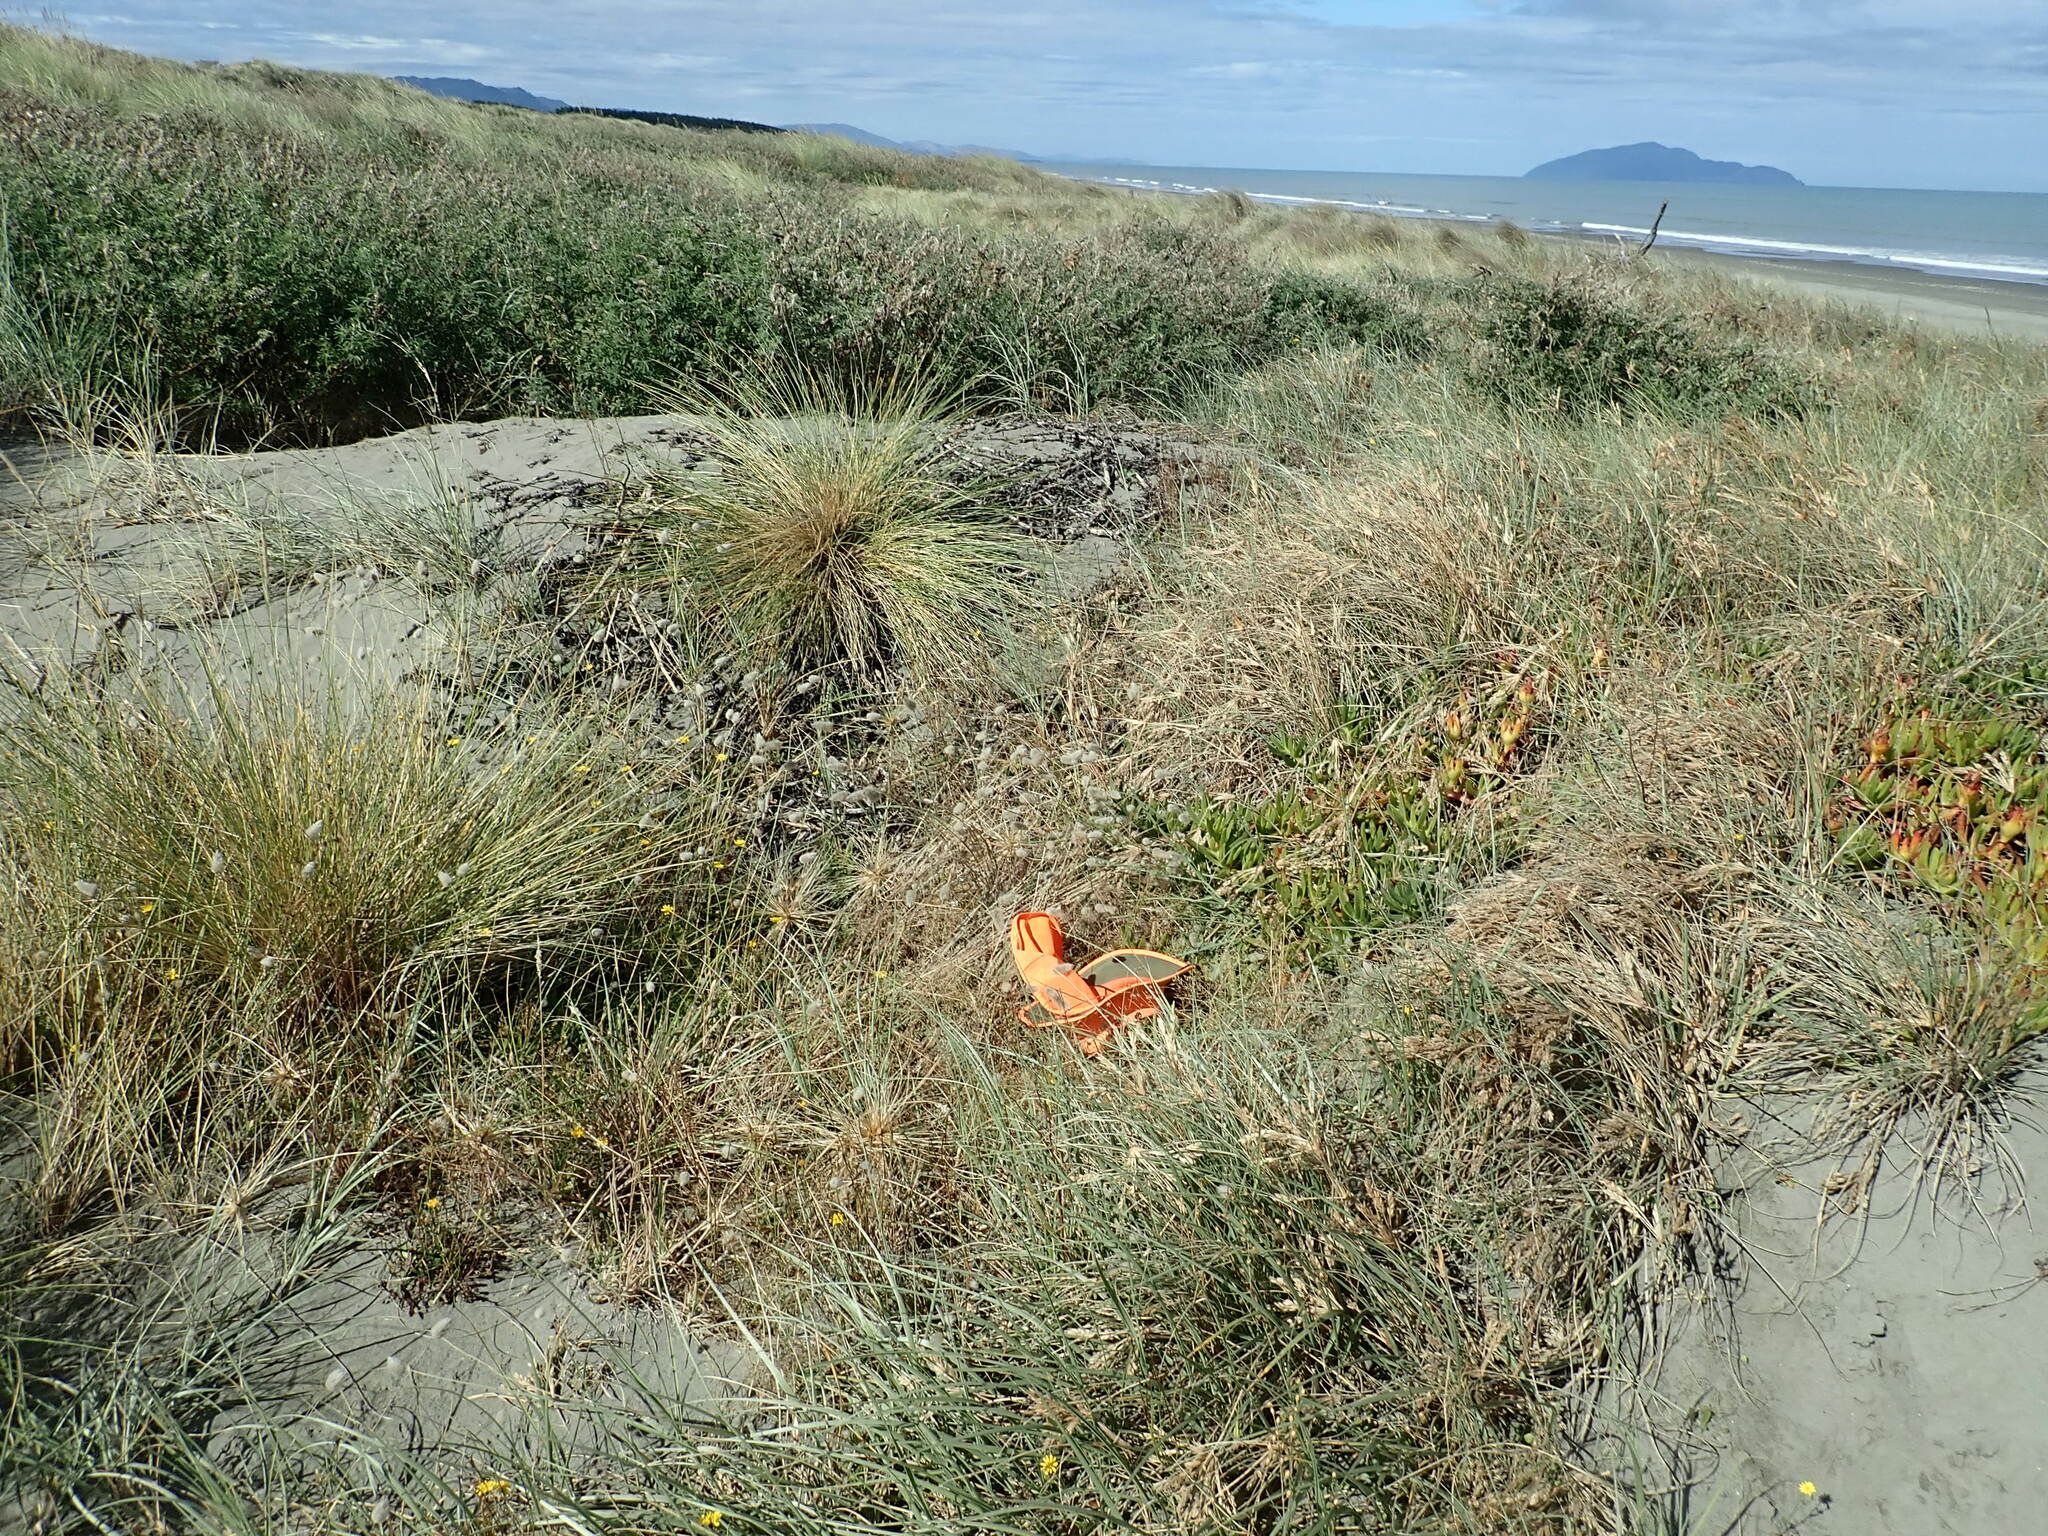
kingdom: Plantae
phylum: Tracheophyta
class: Liliopsida
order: Poales
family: Poaceae
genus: Lagurus
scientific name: Lagurus ovatus
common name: Hare's-tail
